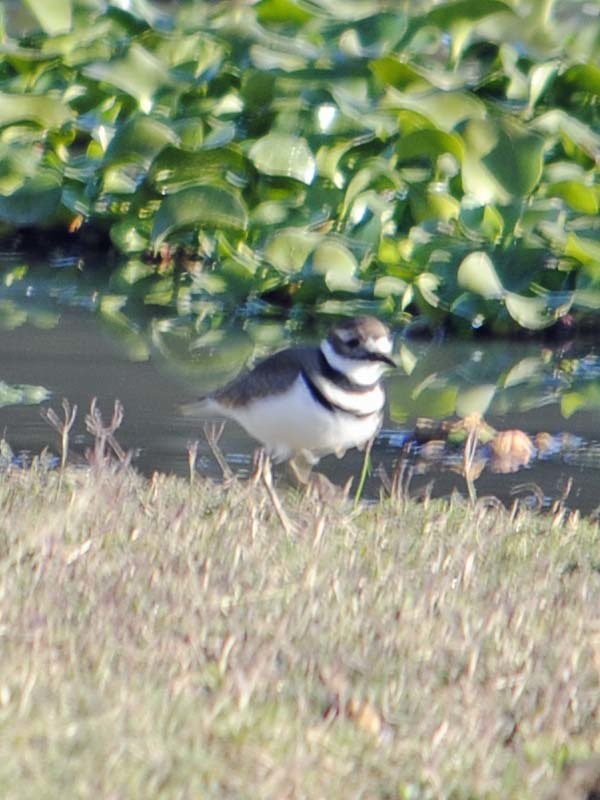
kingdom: Animalia
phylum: Chordata
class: Aves
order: Charadriiformes
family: Charadriidae
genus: Charadrius
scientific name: Charadrius vociferus
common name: Killdeer
